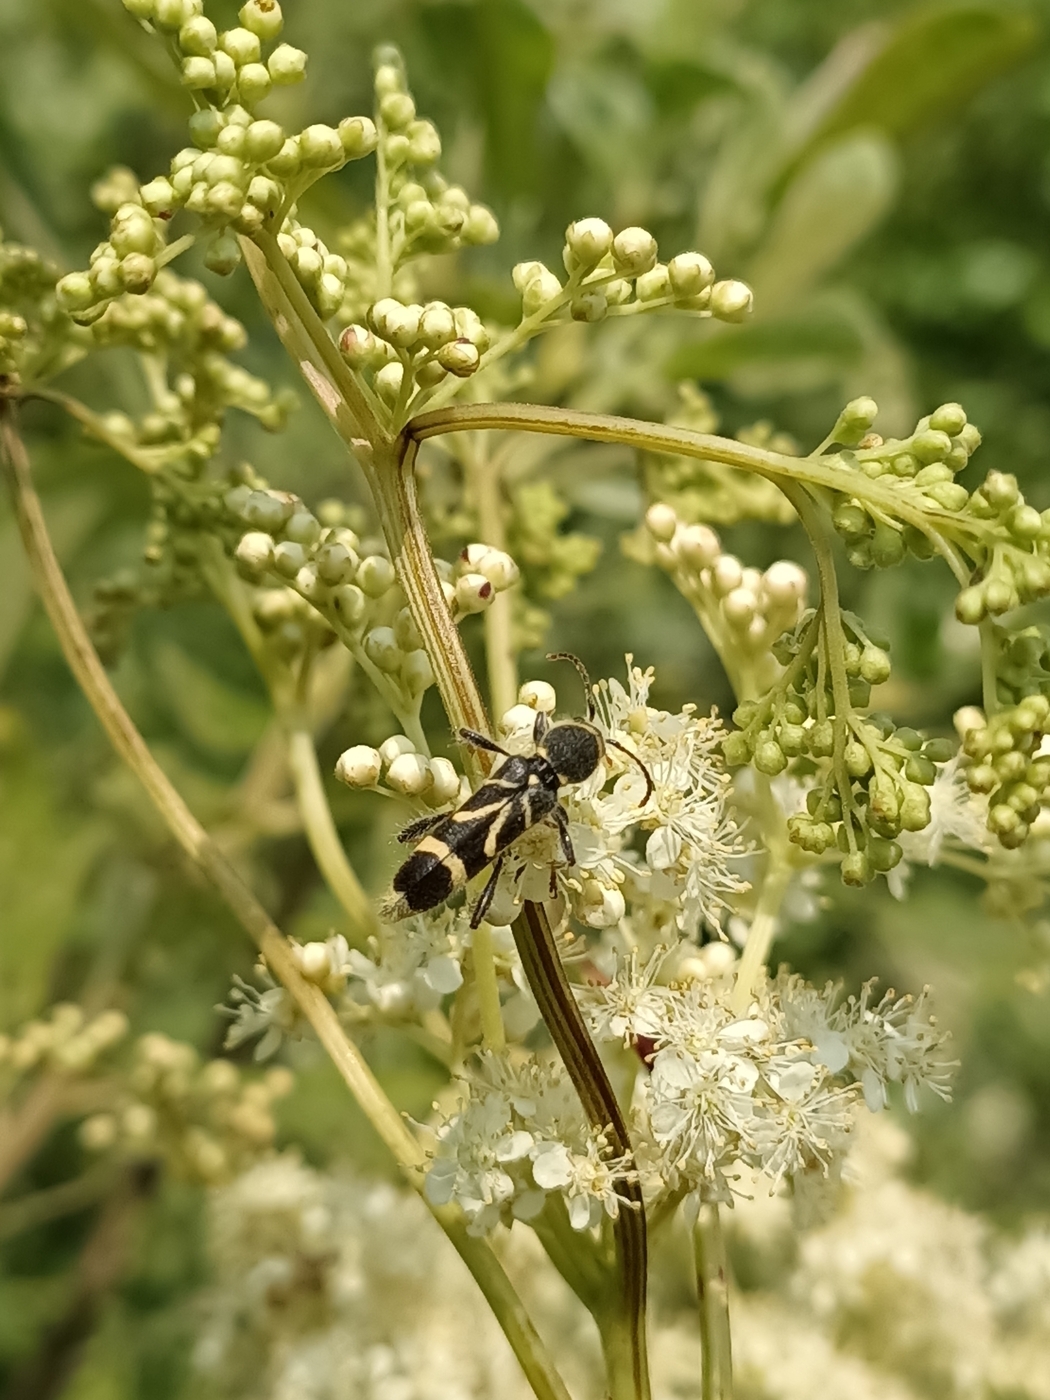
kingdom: Animalia
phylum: Arthropoda
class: Insecta
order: Coleoptera
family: Cerambycidae
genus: Cyrtoclytus
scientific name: Cyrtoclytus capra
